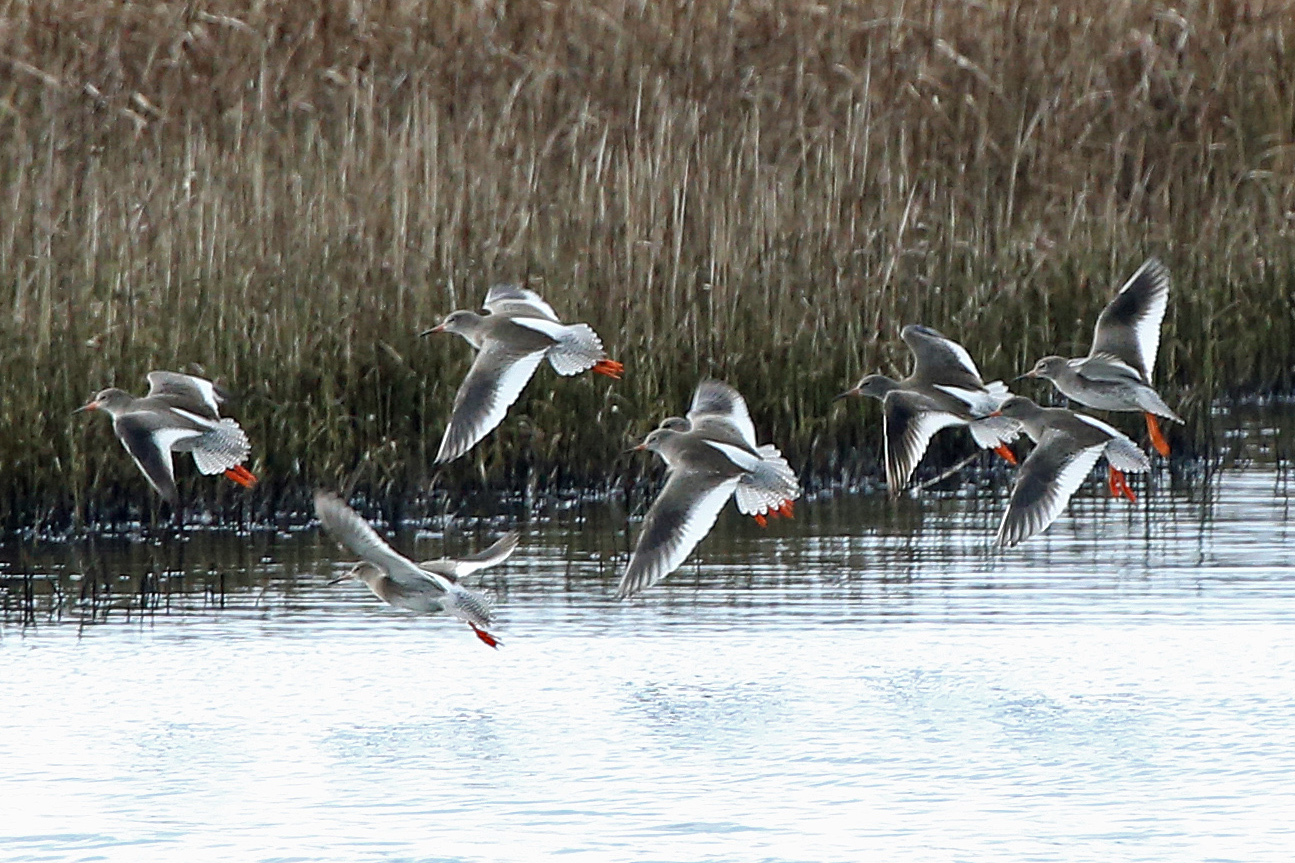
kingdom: Animalia
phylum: Chordata
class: Aves
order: Charadriiformes
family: Scolopacidae
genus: Tringa
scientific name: Tringa totanus
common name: Common redshank
